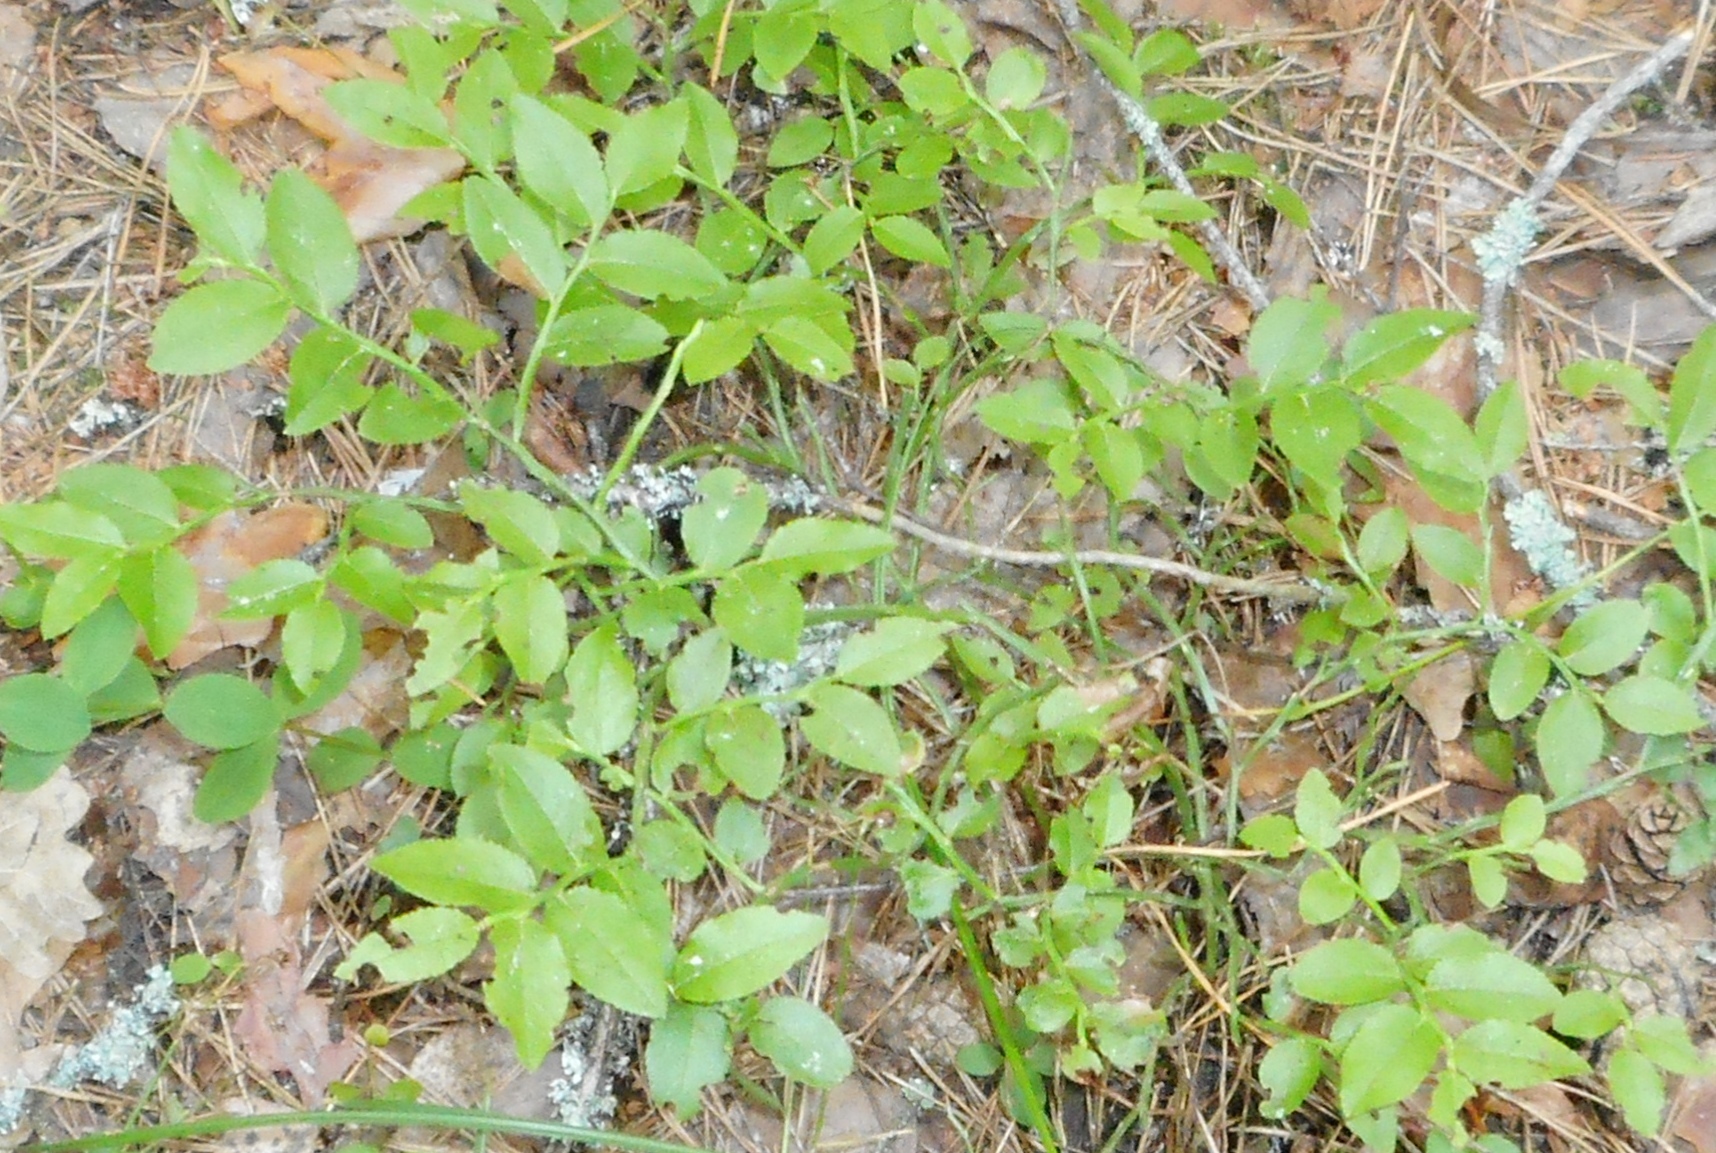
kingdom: Plantae
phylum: Tracheophyta
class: Magnoliopsida
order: Ericales
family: Ericaceae
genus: Vaccinium
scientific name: Vaccinium myrtillus
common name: Bilberry
